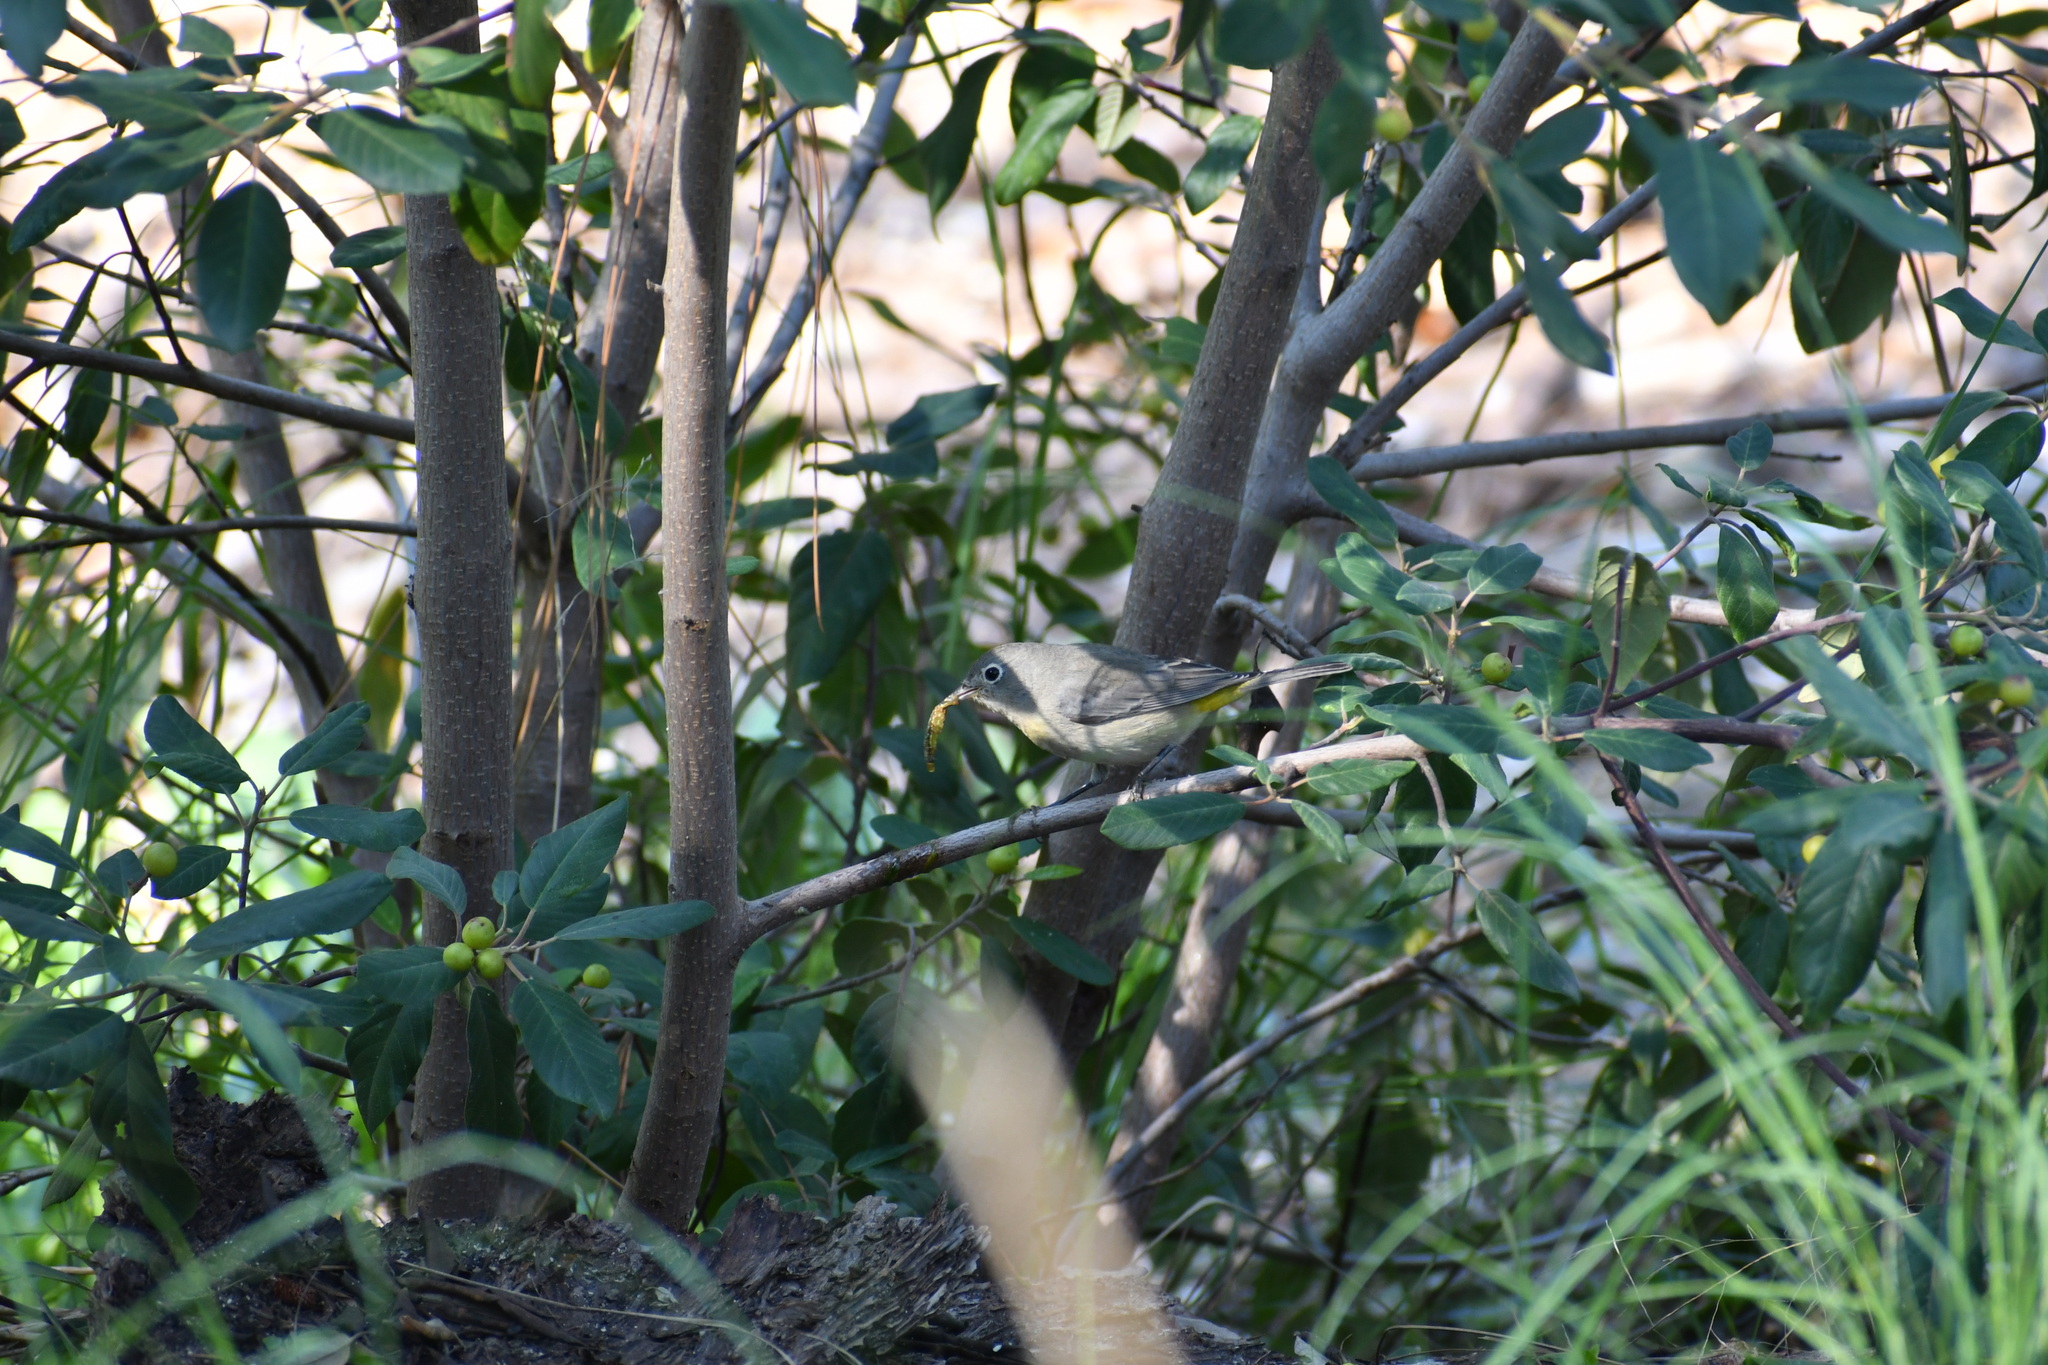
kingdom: Animalia
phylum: Chordata
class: Aves
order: Passeriformes
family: Parulidae
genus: Leiothlypis
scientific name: Leiothlypis virginiae
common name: Virginia's warbler
